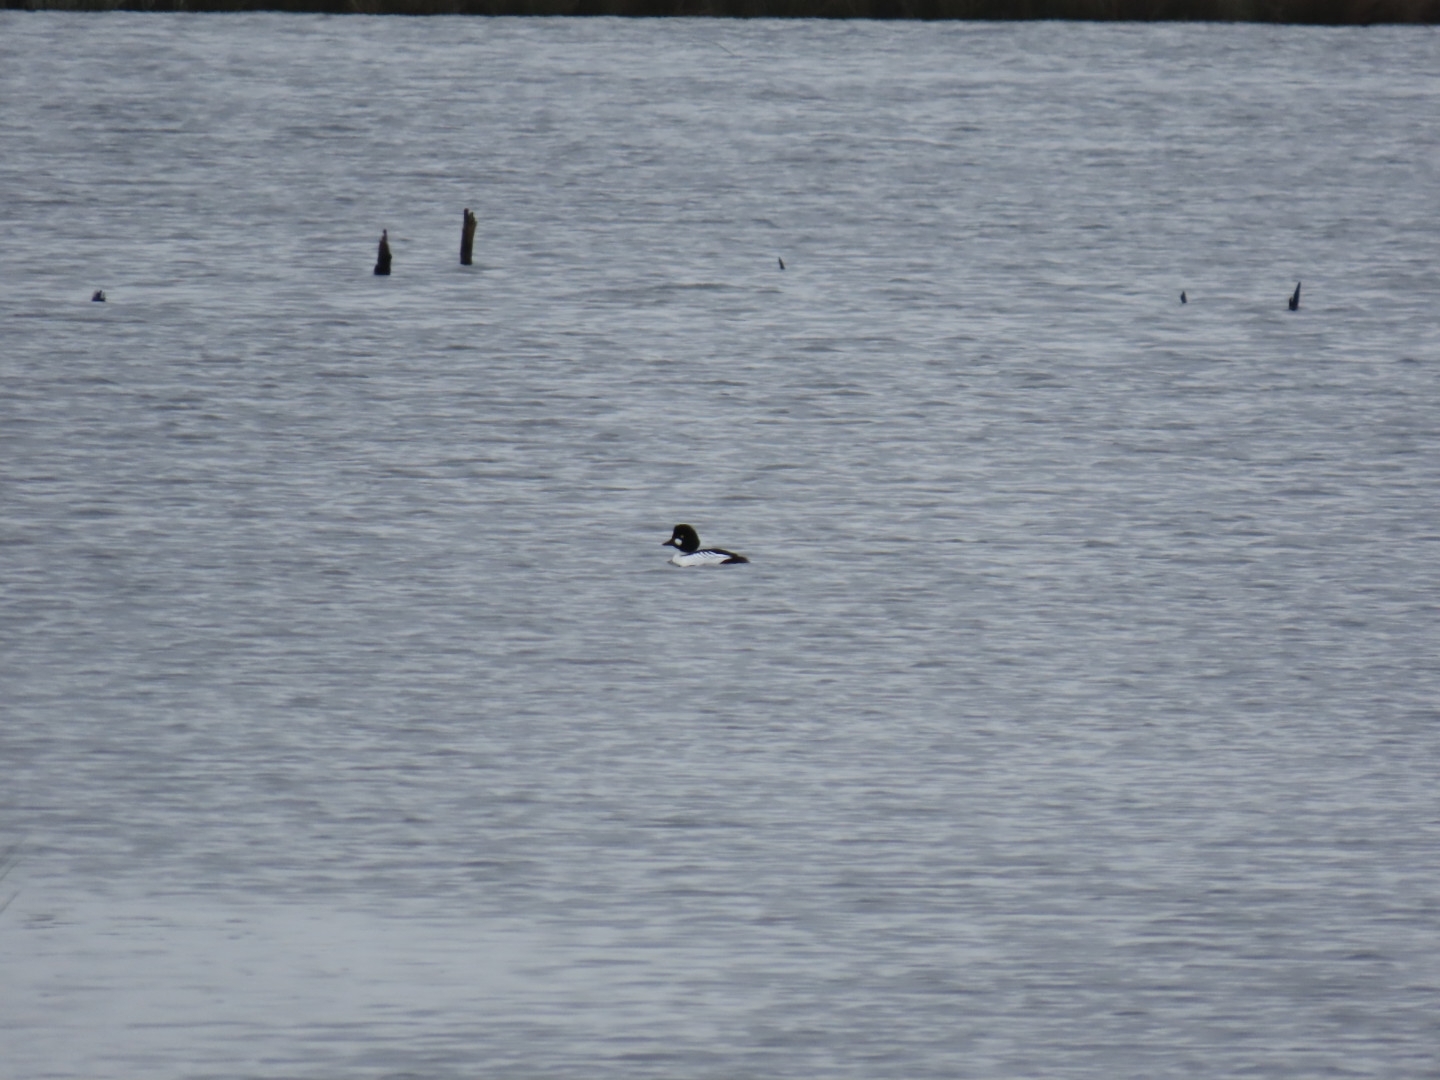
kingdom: Animalia
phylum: Chordata
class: Aves
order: Anseriformes
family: Anatidae
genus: Bucephala
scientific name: Bucephala clangula
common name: Common goldeneye
